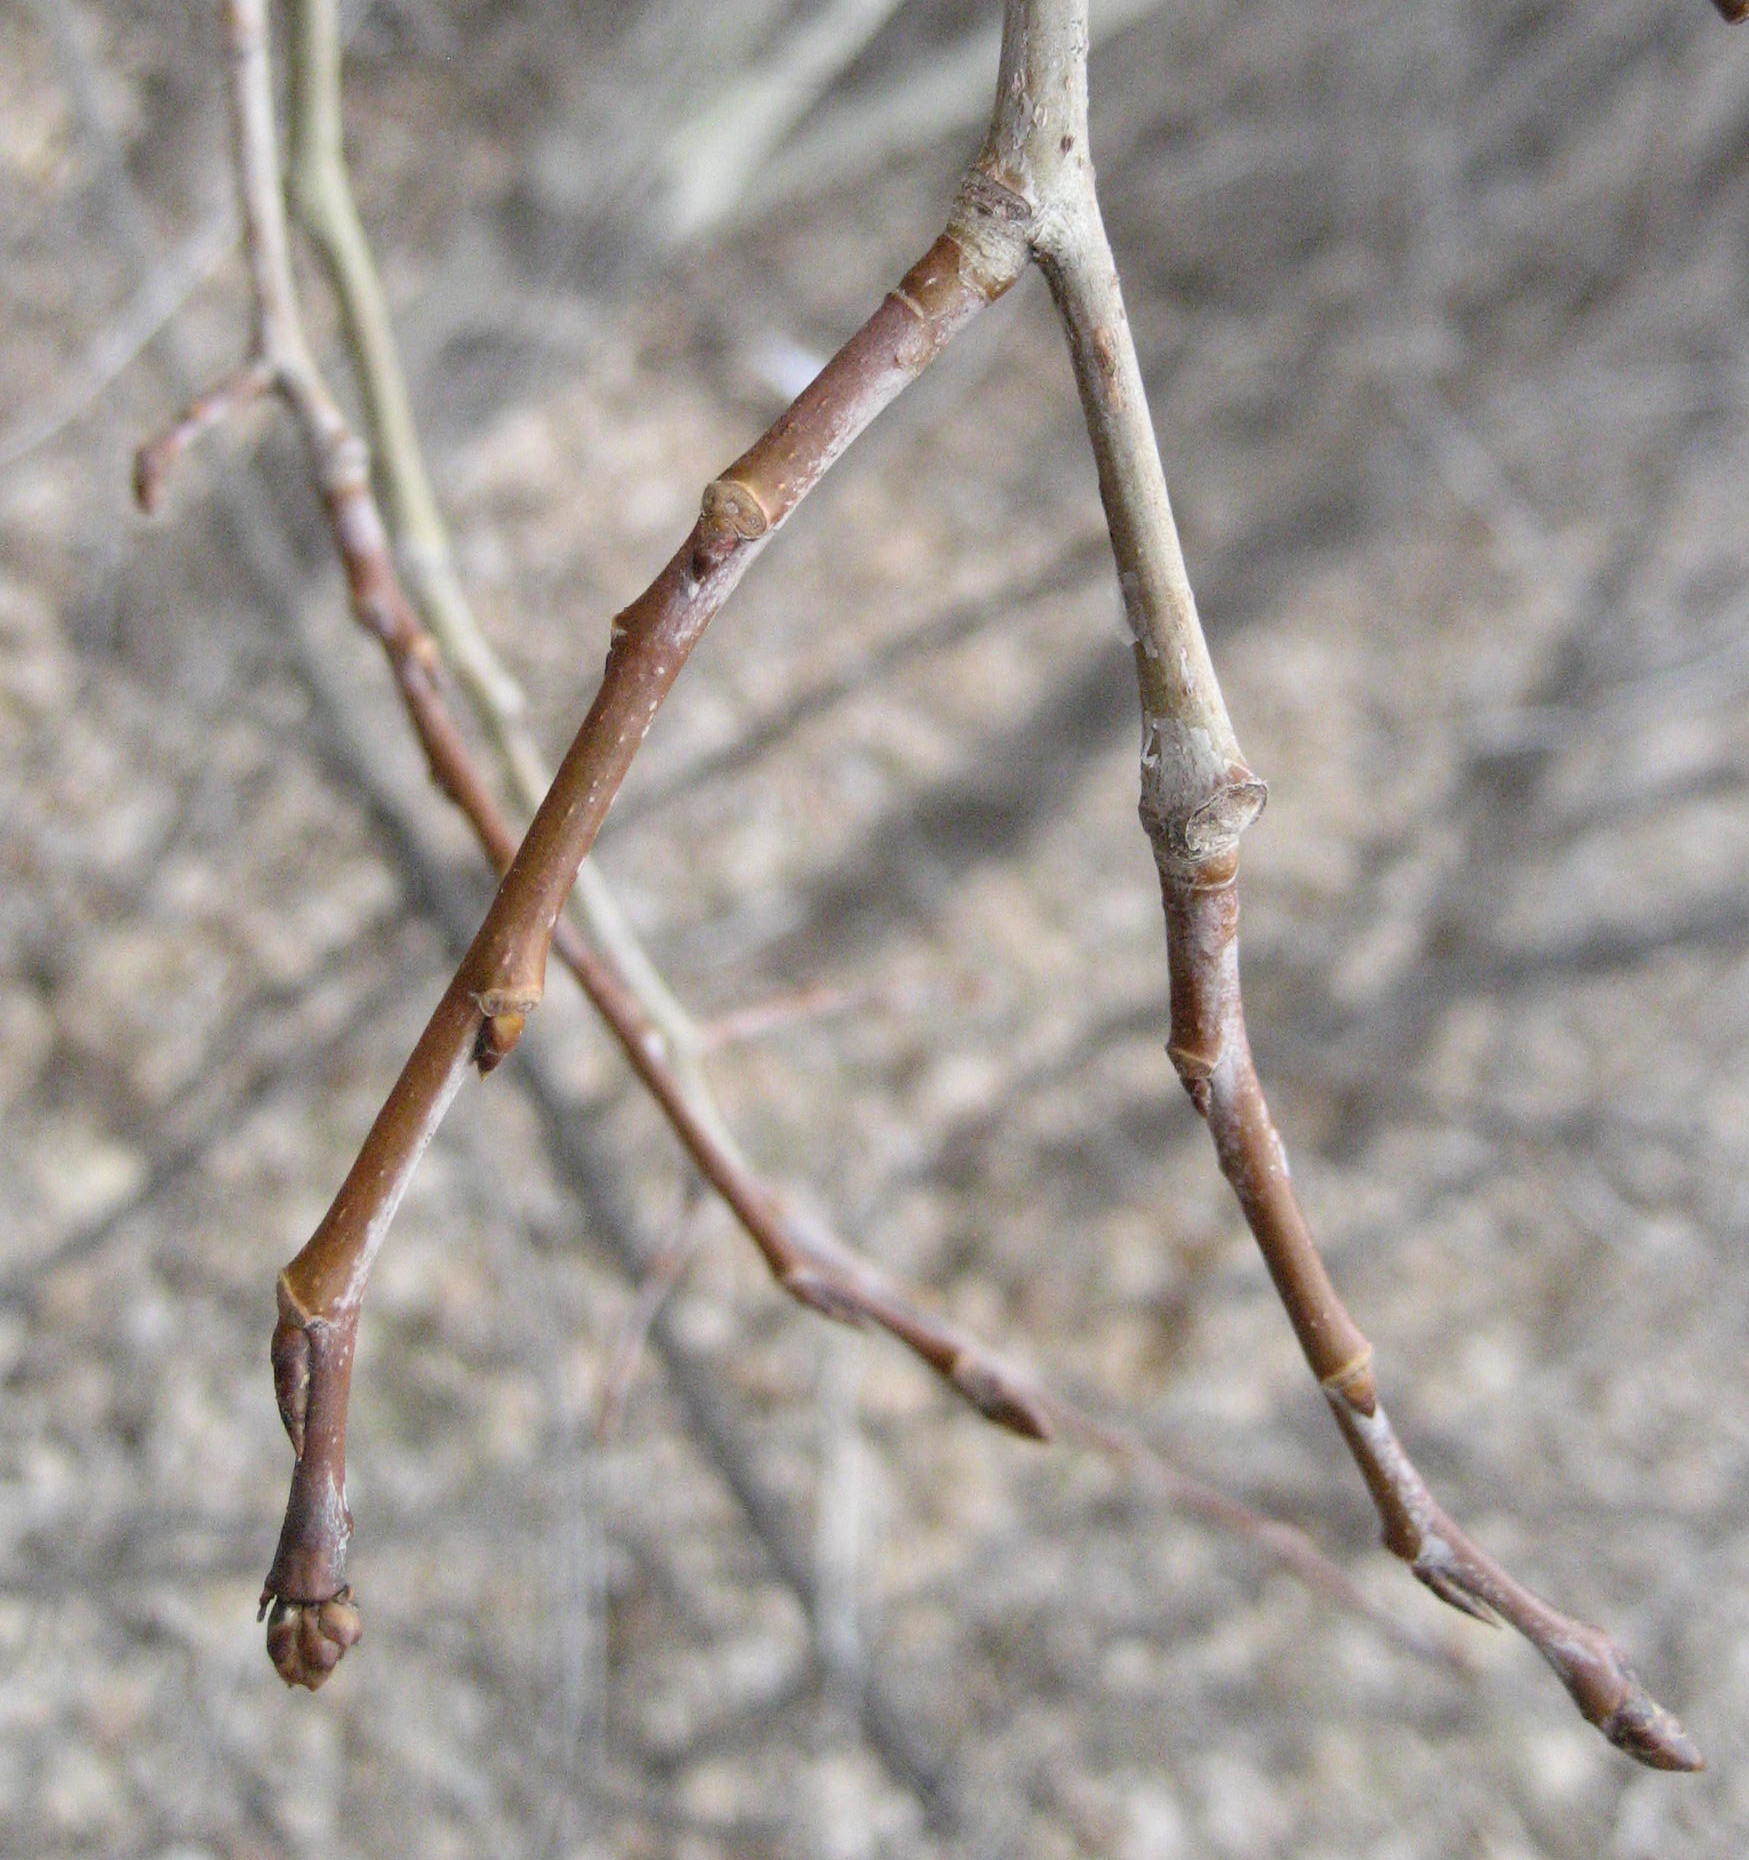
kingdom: Plantae
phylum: Tracheophyta
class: Magnoliopsida
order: Malpighiales
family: Salicaceae
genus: Populus
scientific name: Populus tremuloides
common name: Quaking aspen
